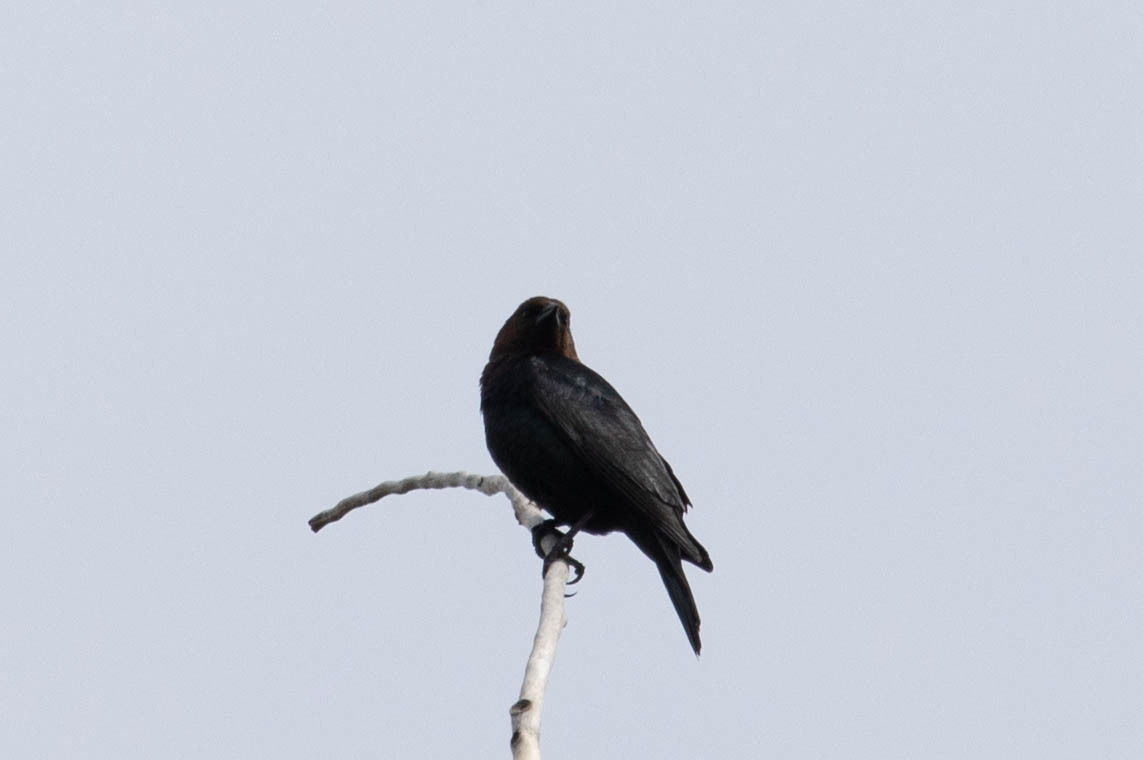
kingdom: Animalia
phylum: Chordata
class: Aves
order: Passeriformes
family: Icteridae
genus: Molothrus
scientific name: Molothrus ater
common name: Brown-headed cowbird
